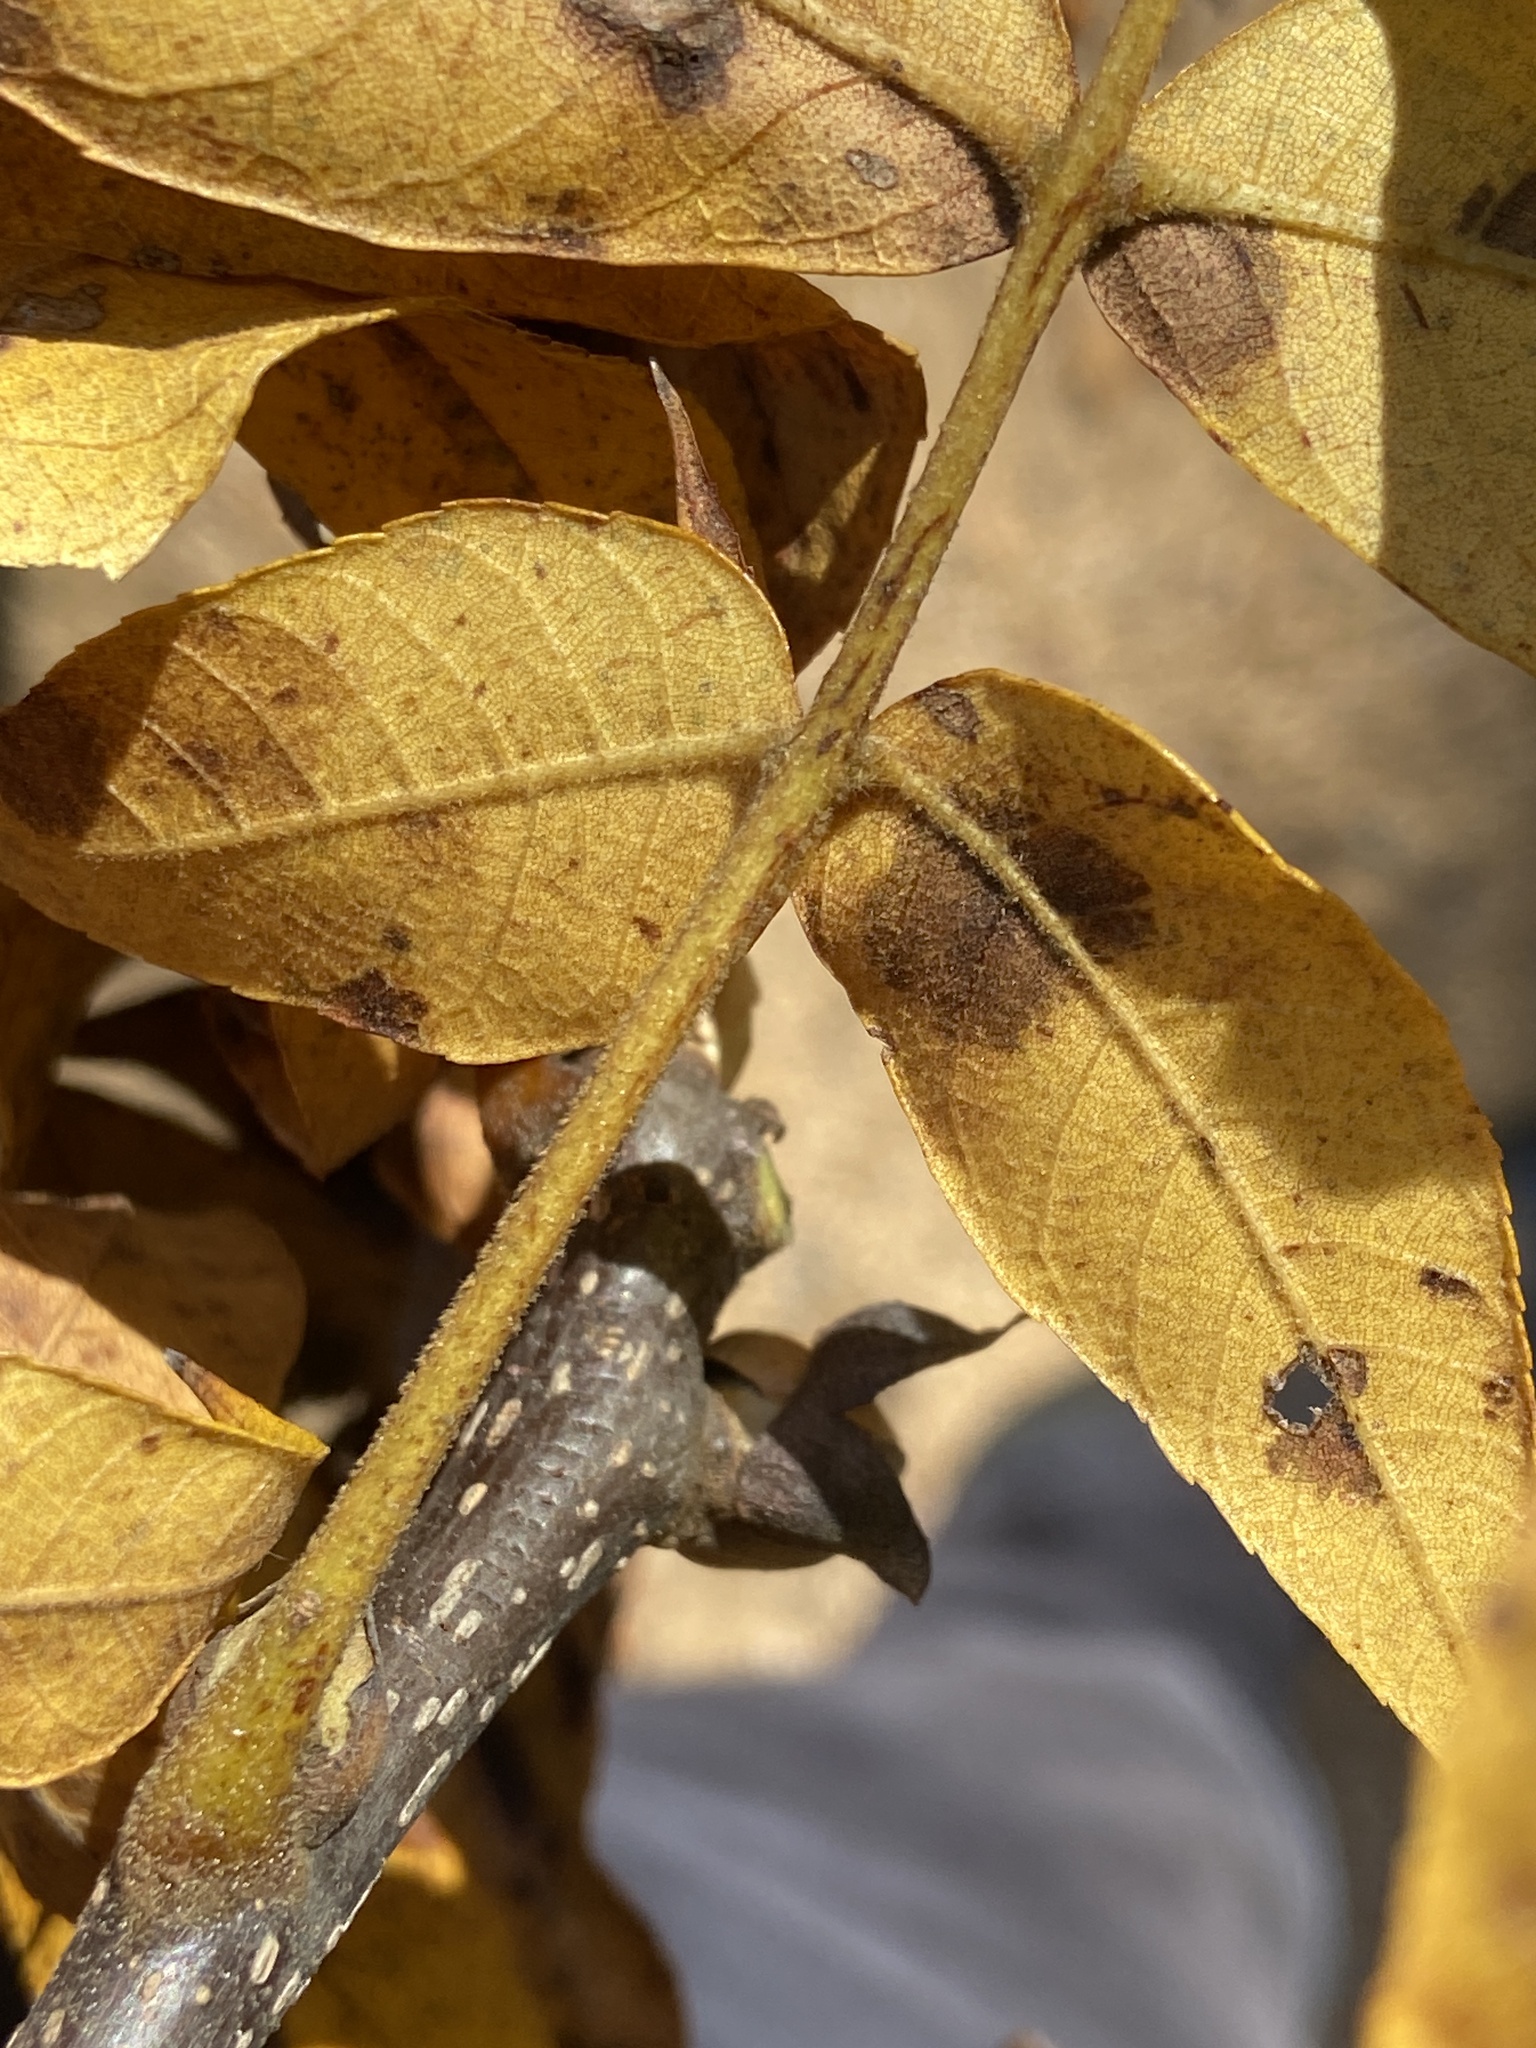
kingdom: Plantae
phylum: Tracheophyta
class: Magnoliopsida
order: Fagales
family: Juglandaceae
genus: Carya
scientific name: Carya alba
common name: Mockernut hickory
